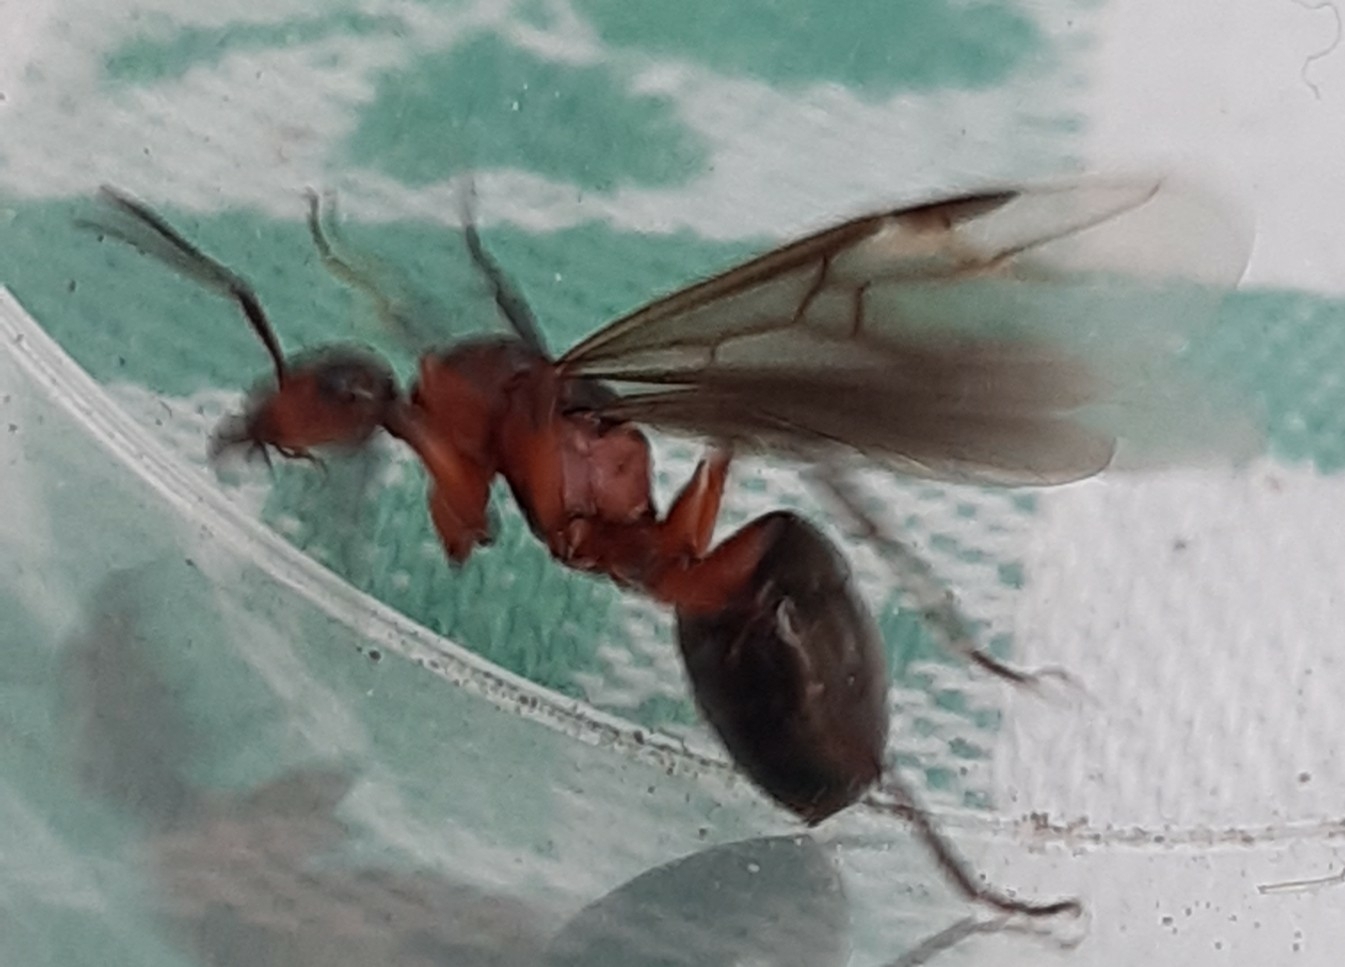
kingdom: Animalia
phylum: Arthropoda
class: Insecta
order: Hymenoptera
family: Formicidae
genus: Formica
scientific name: Formica
